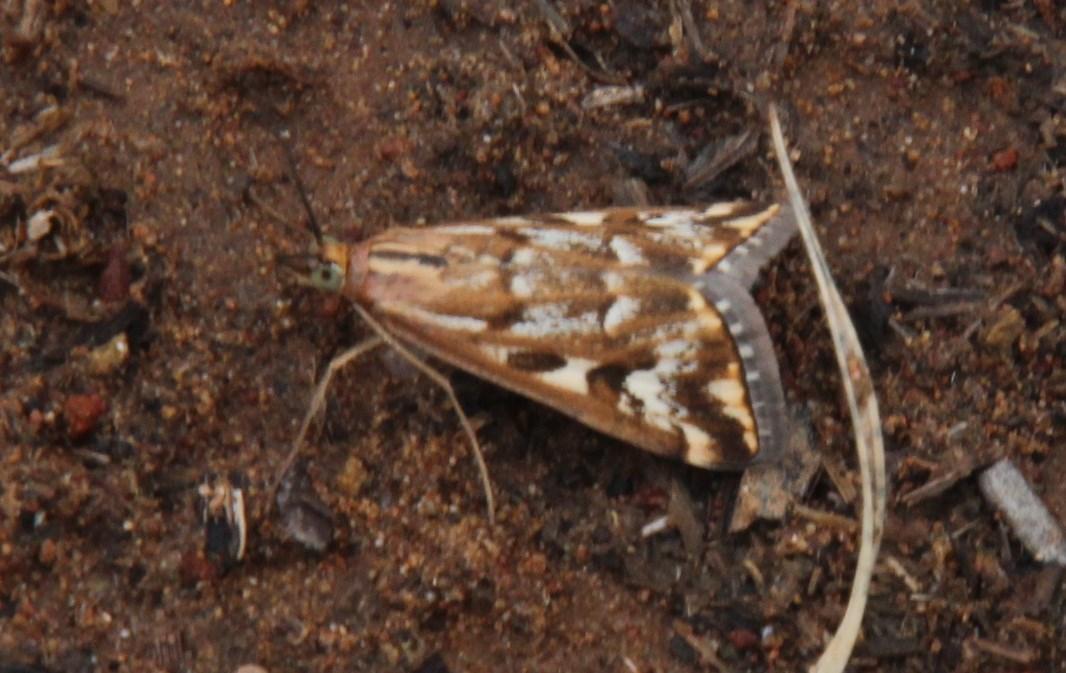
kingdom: Animalia
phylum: Arthropoda
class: Insecta
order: Lepidoptera
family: Crambidae
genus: Loxostege
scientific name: Loxostege frustalis
